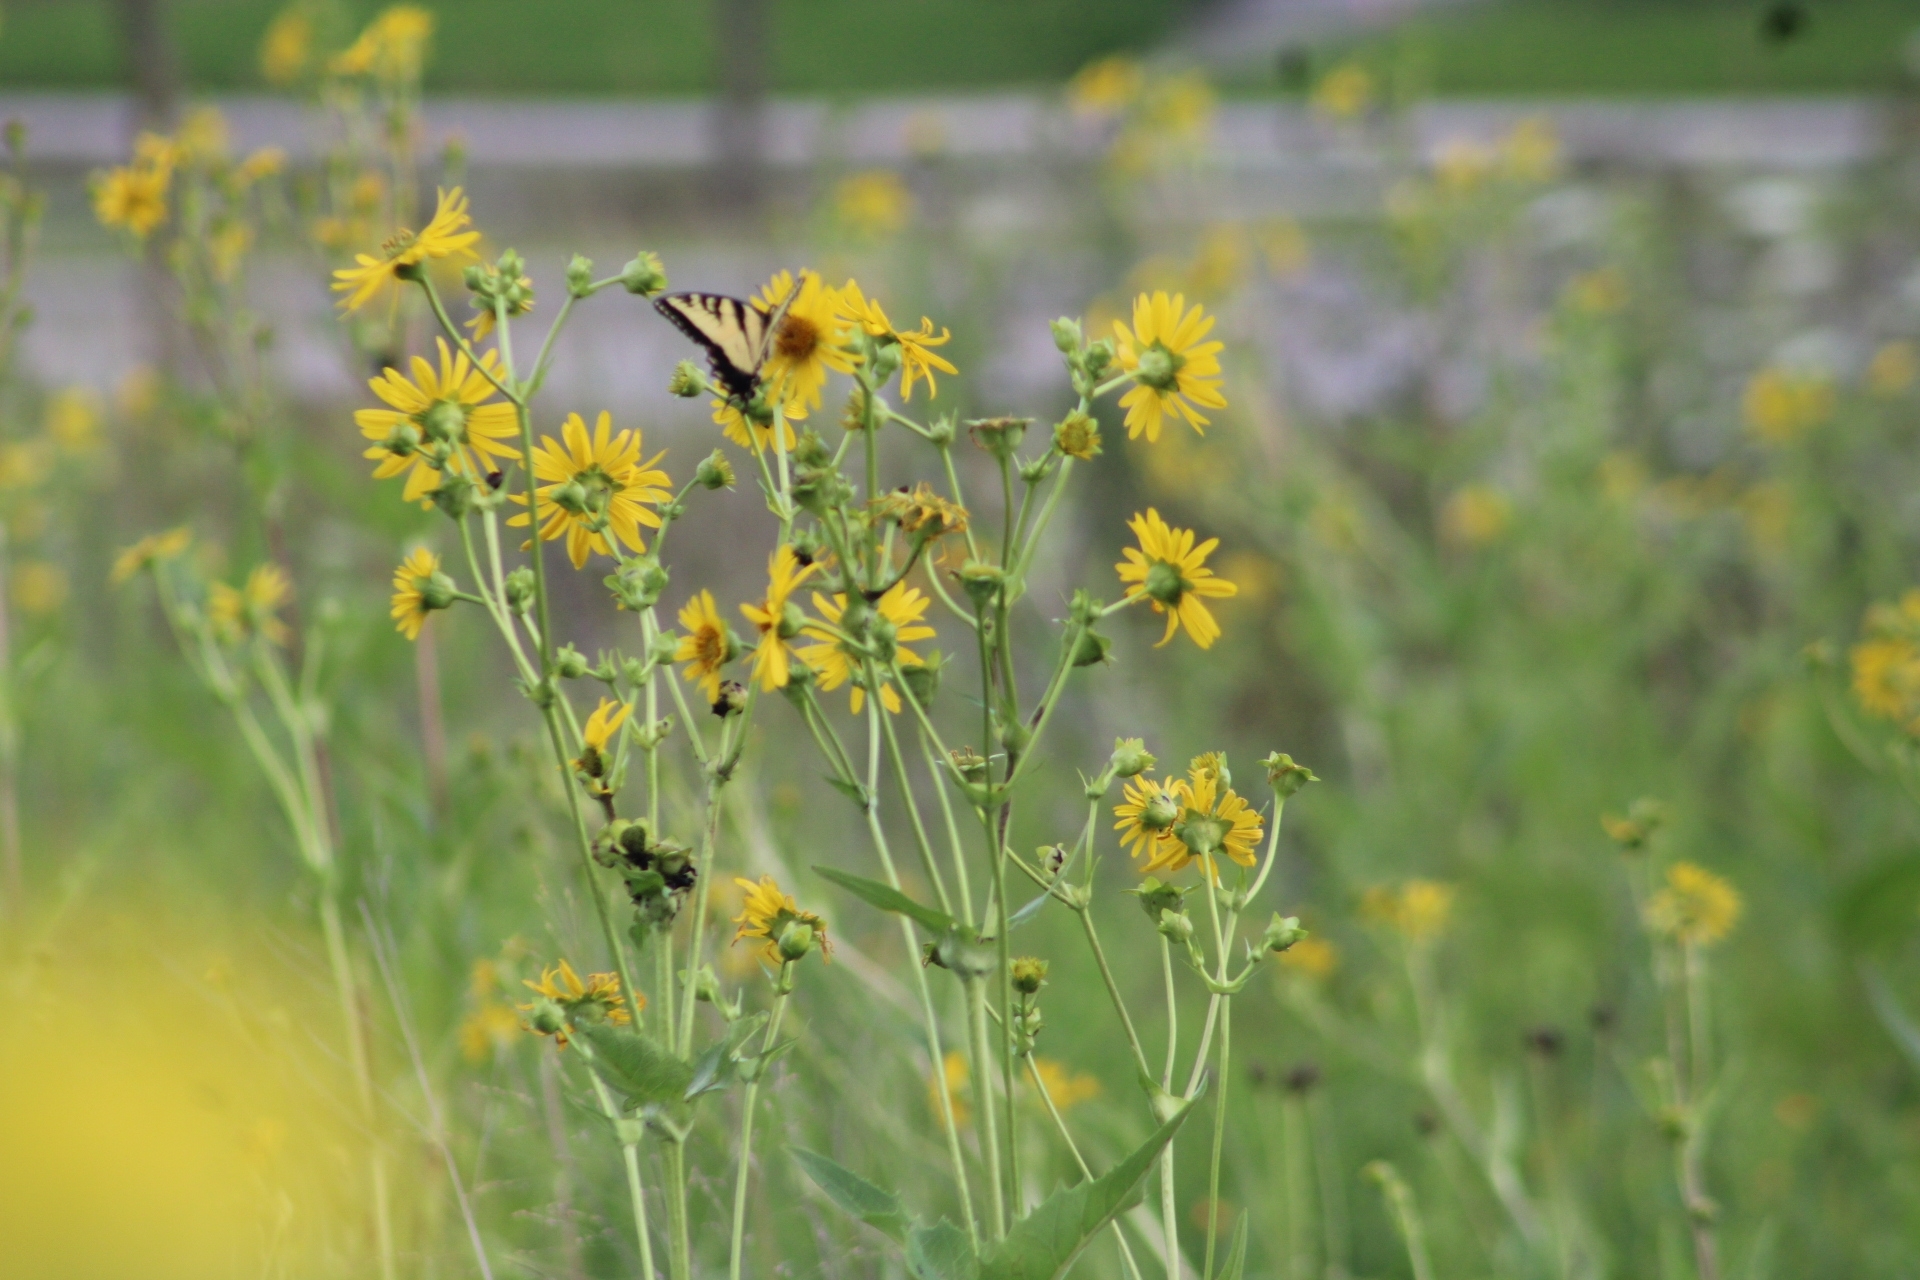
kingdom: Animalia
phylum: Arthropoda
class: Insecta
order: Lepidoptera
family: Papilionidae
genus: Papilio
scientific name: Papilio glaucus
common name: Tiger swallowtail
